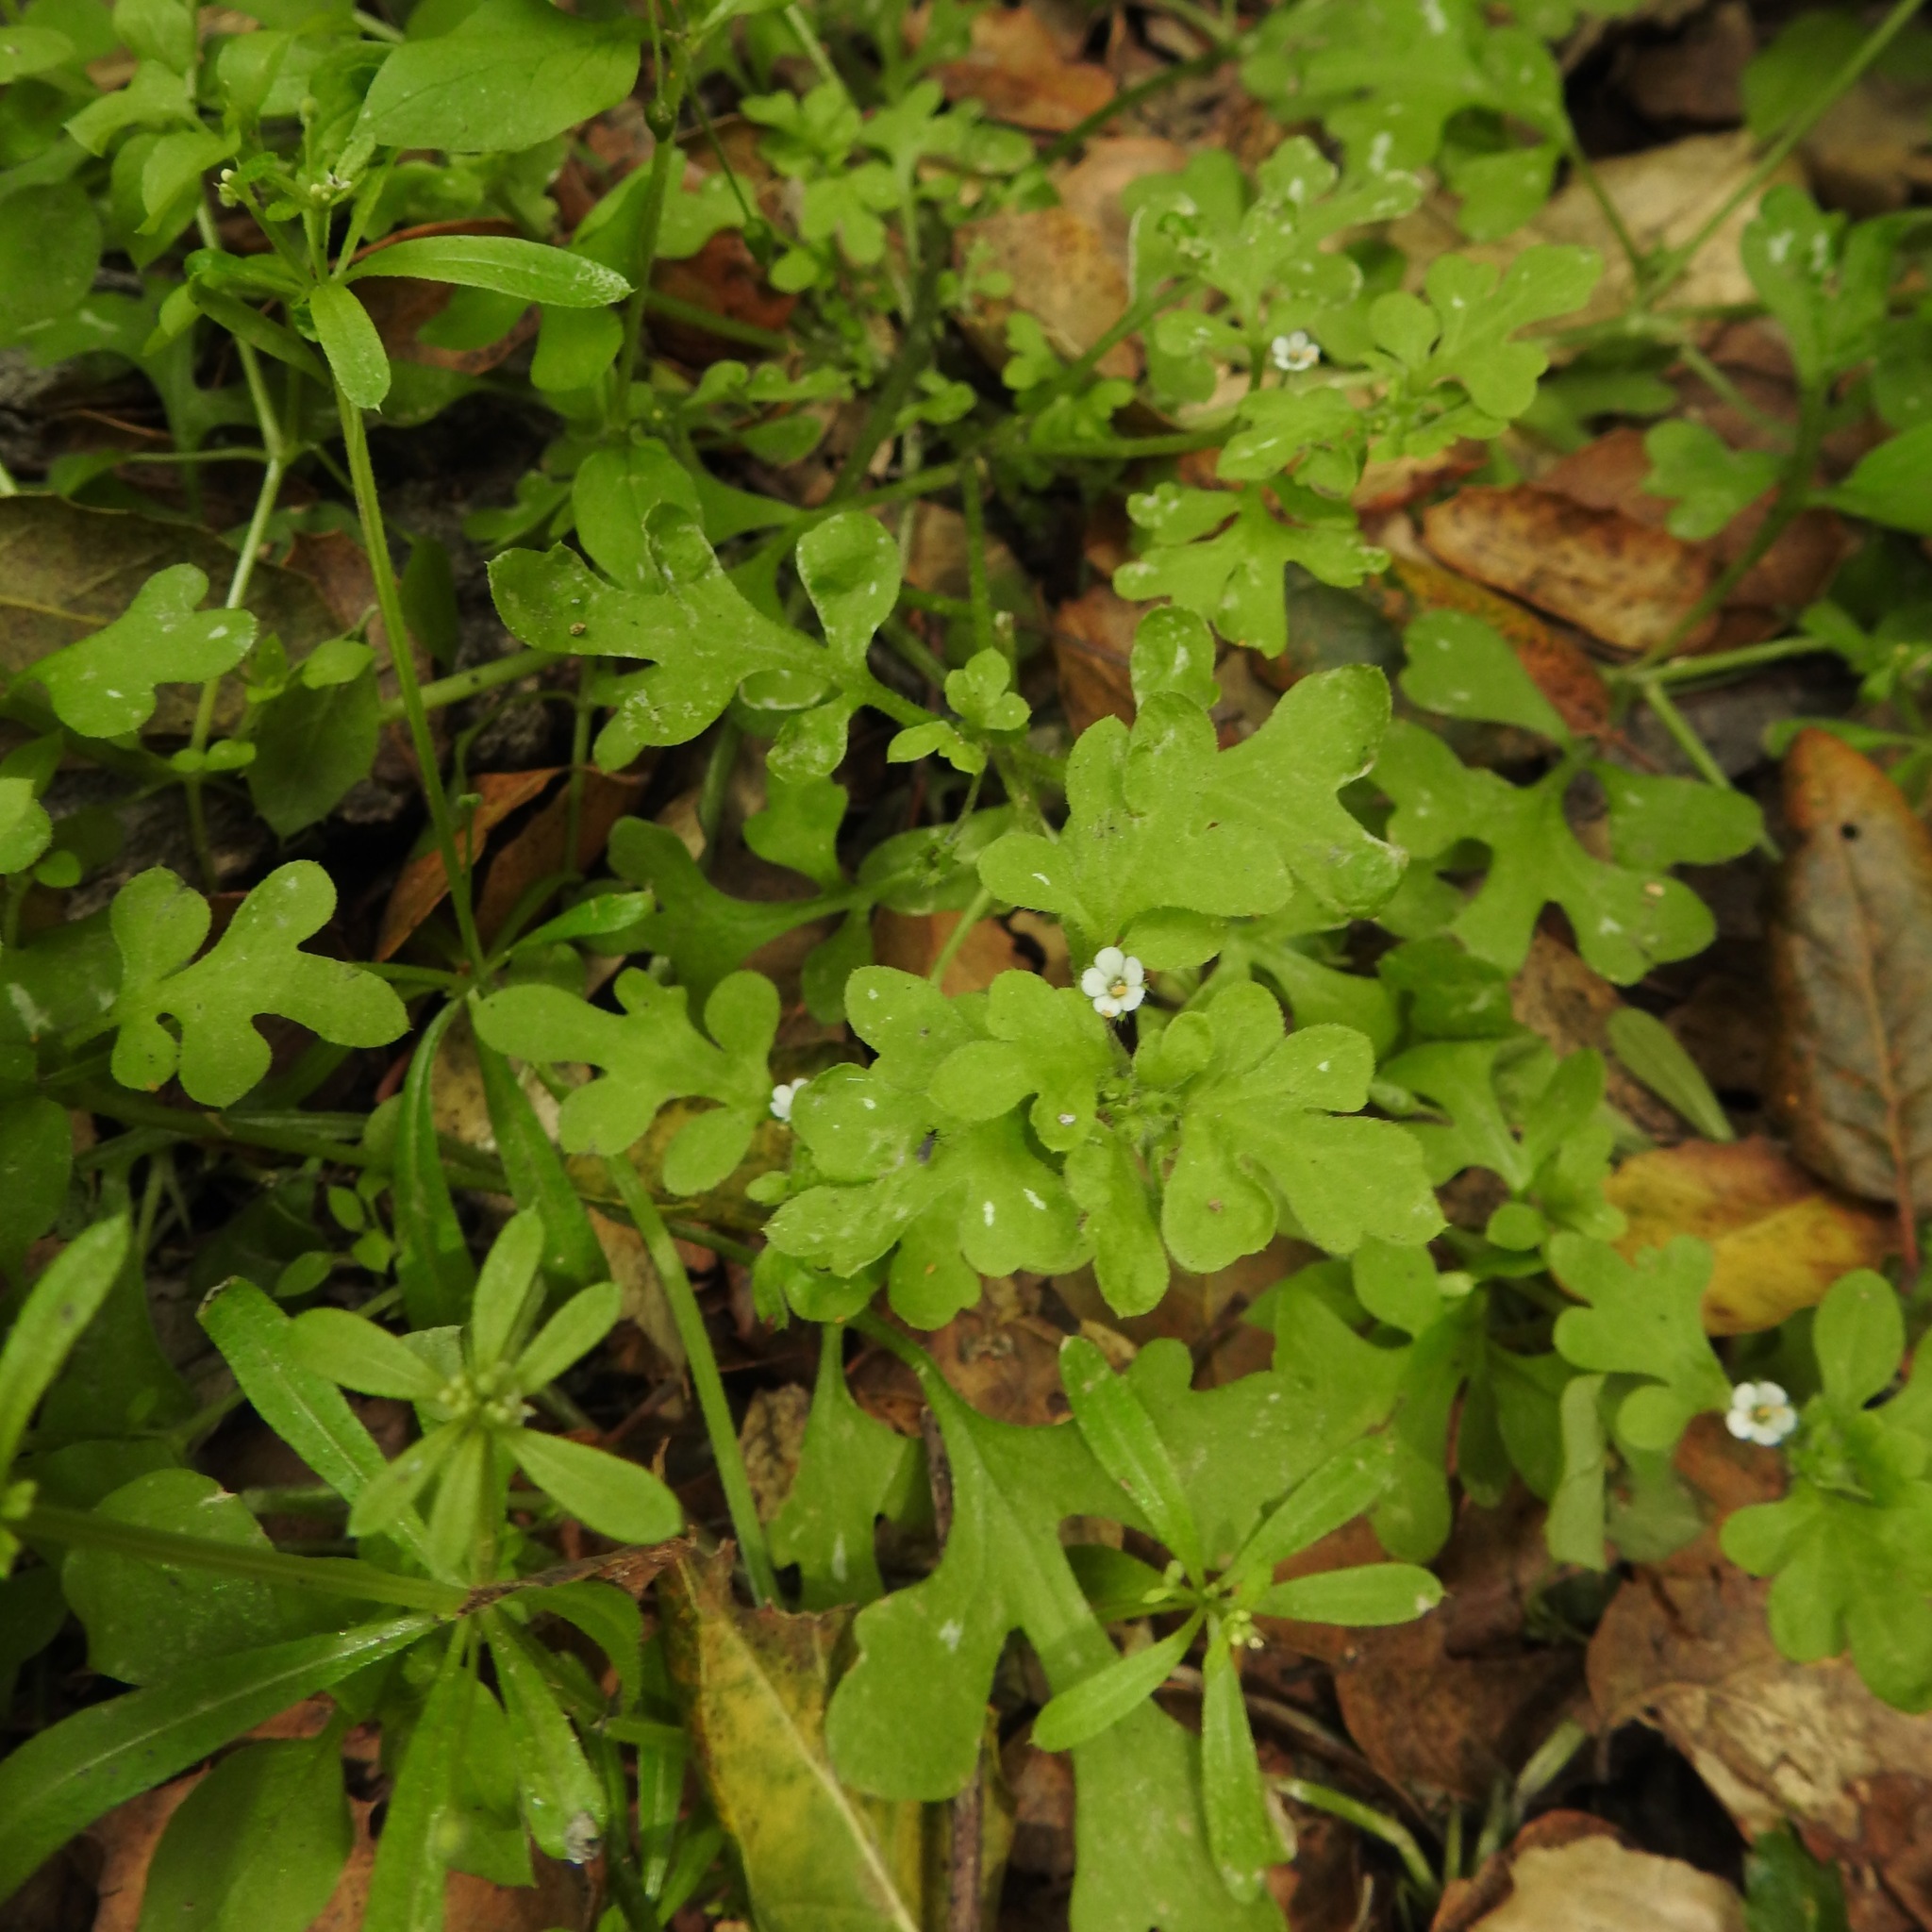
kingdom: Plantae
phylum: Tracheophyta
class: Magnoliopsida
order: Boraginales
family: Hydrophyllaceae
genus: Nemophila
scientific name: Nemophila parviflora
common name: Small-flowered baby-blue-eyes
